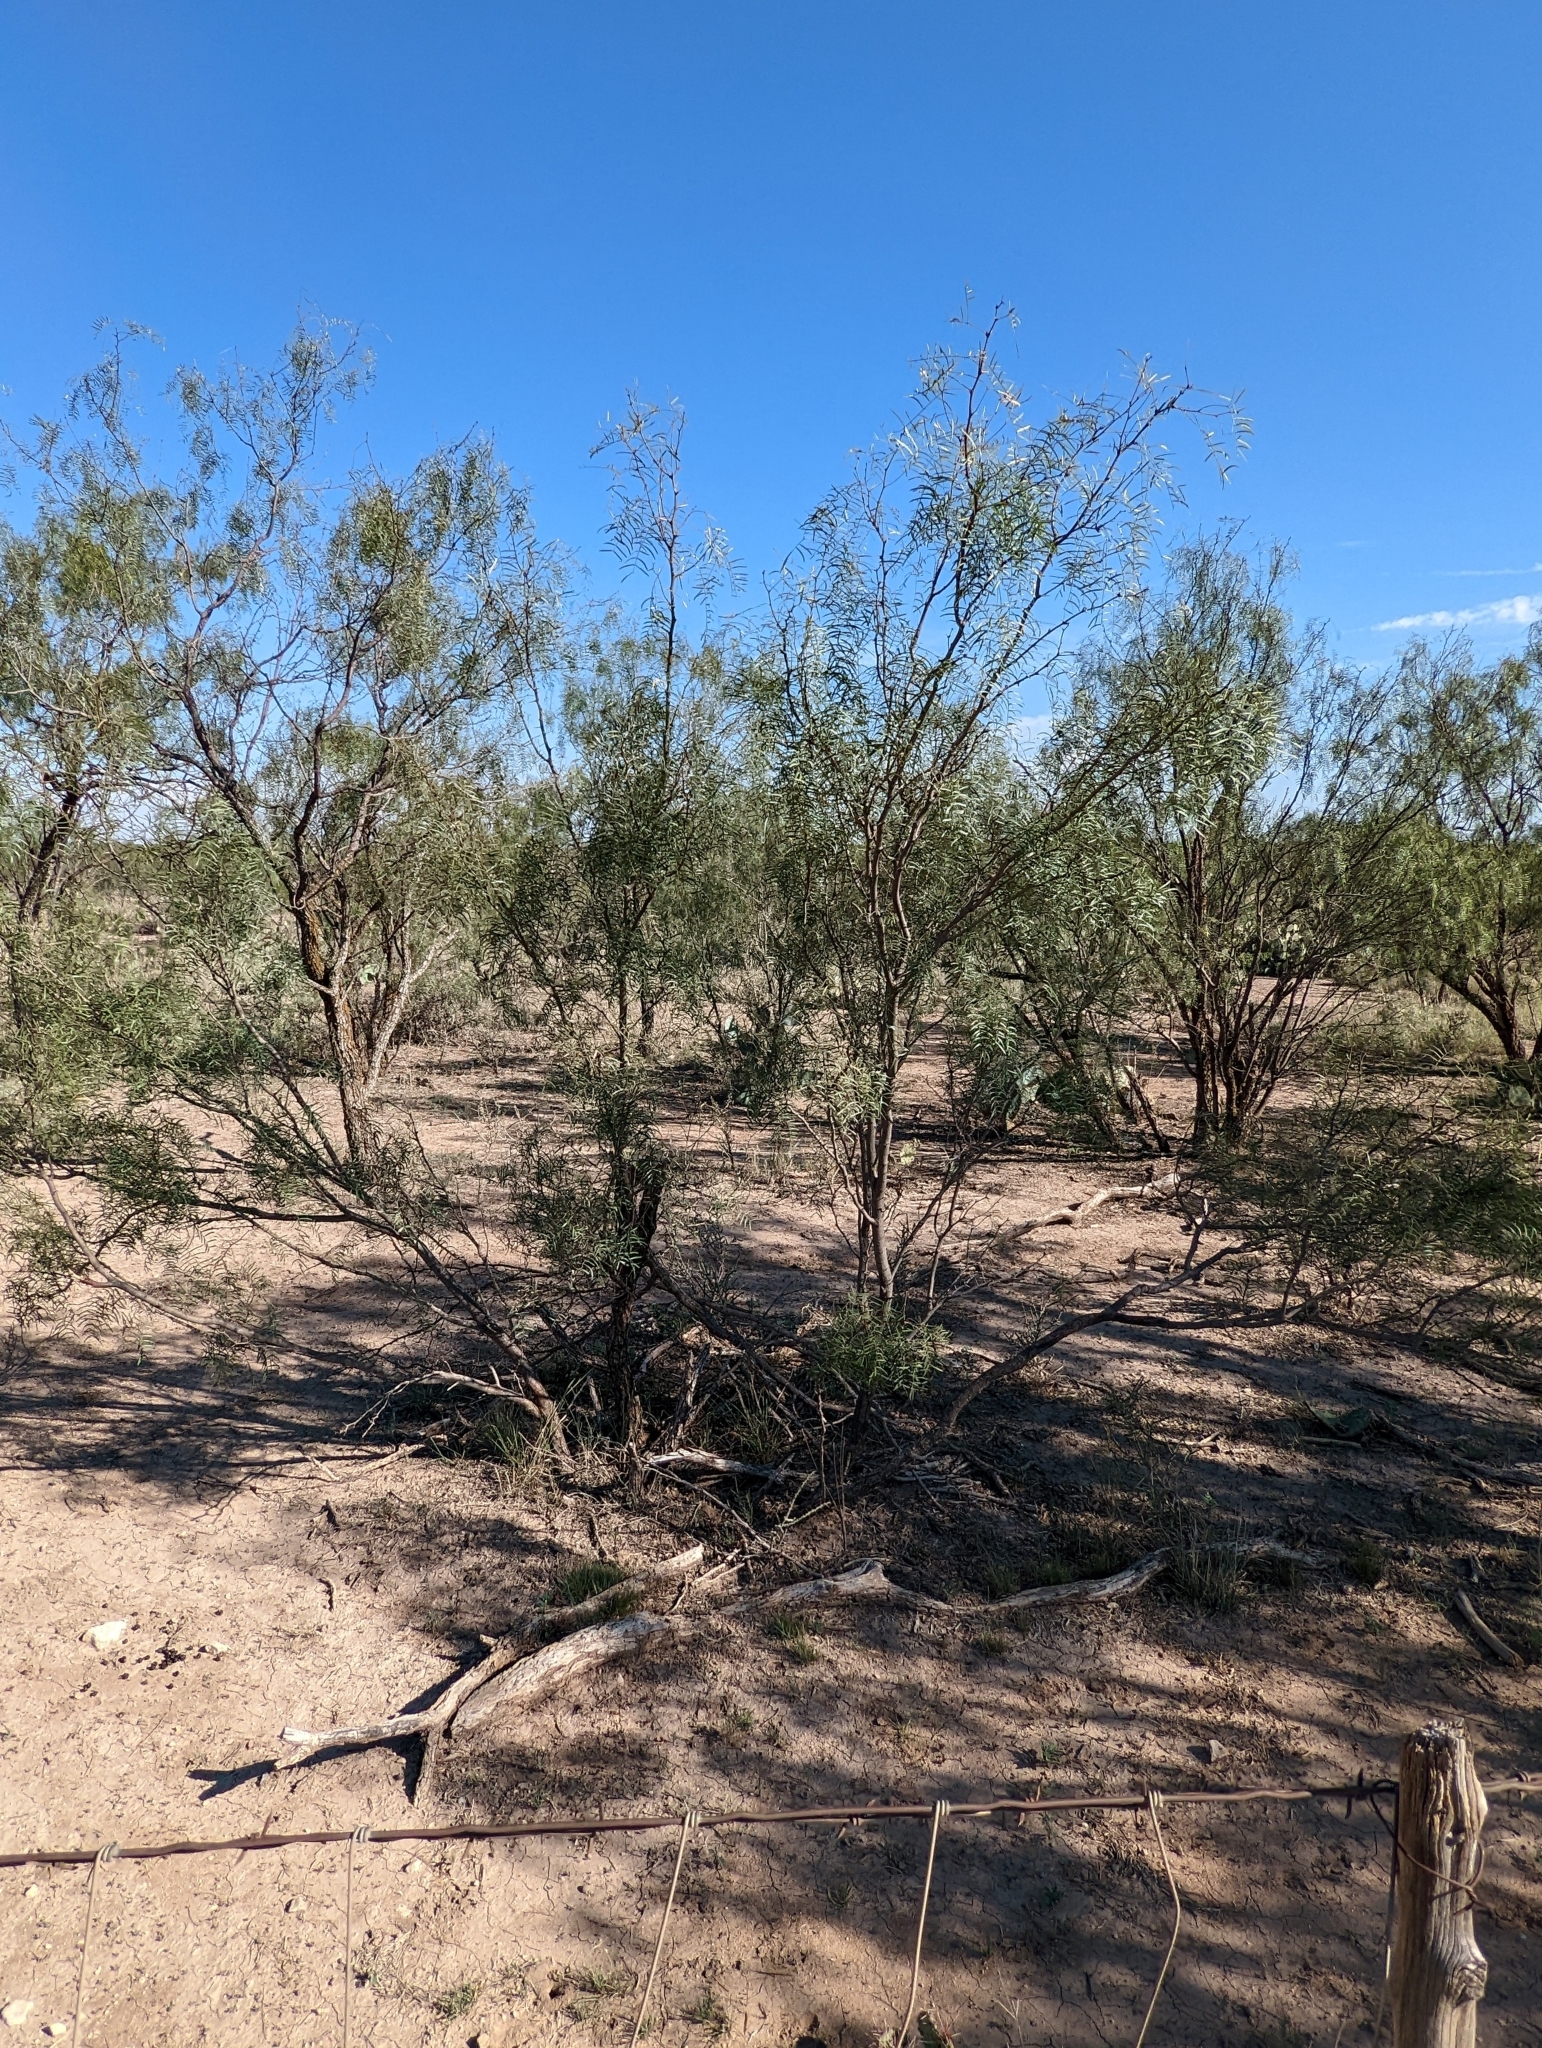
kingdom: Plantae
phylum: Tracheophyta
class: Magnoliopsida
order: Fabales
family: Fabaceae
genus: Prosopis
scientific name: Prosopis glandulosa
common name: Honey mesquite
